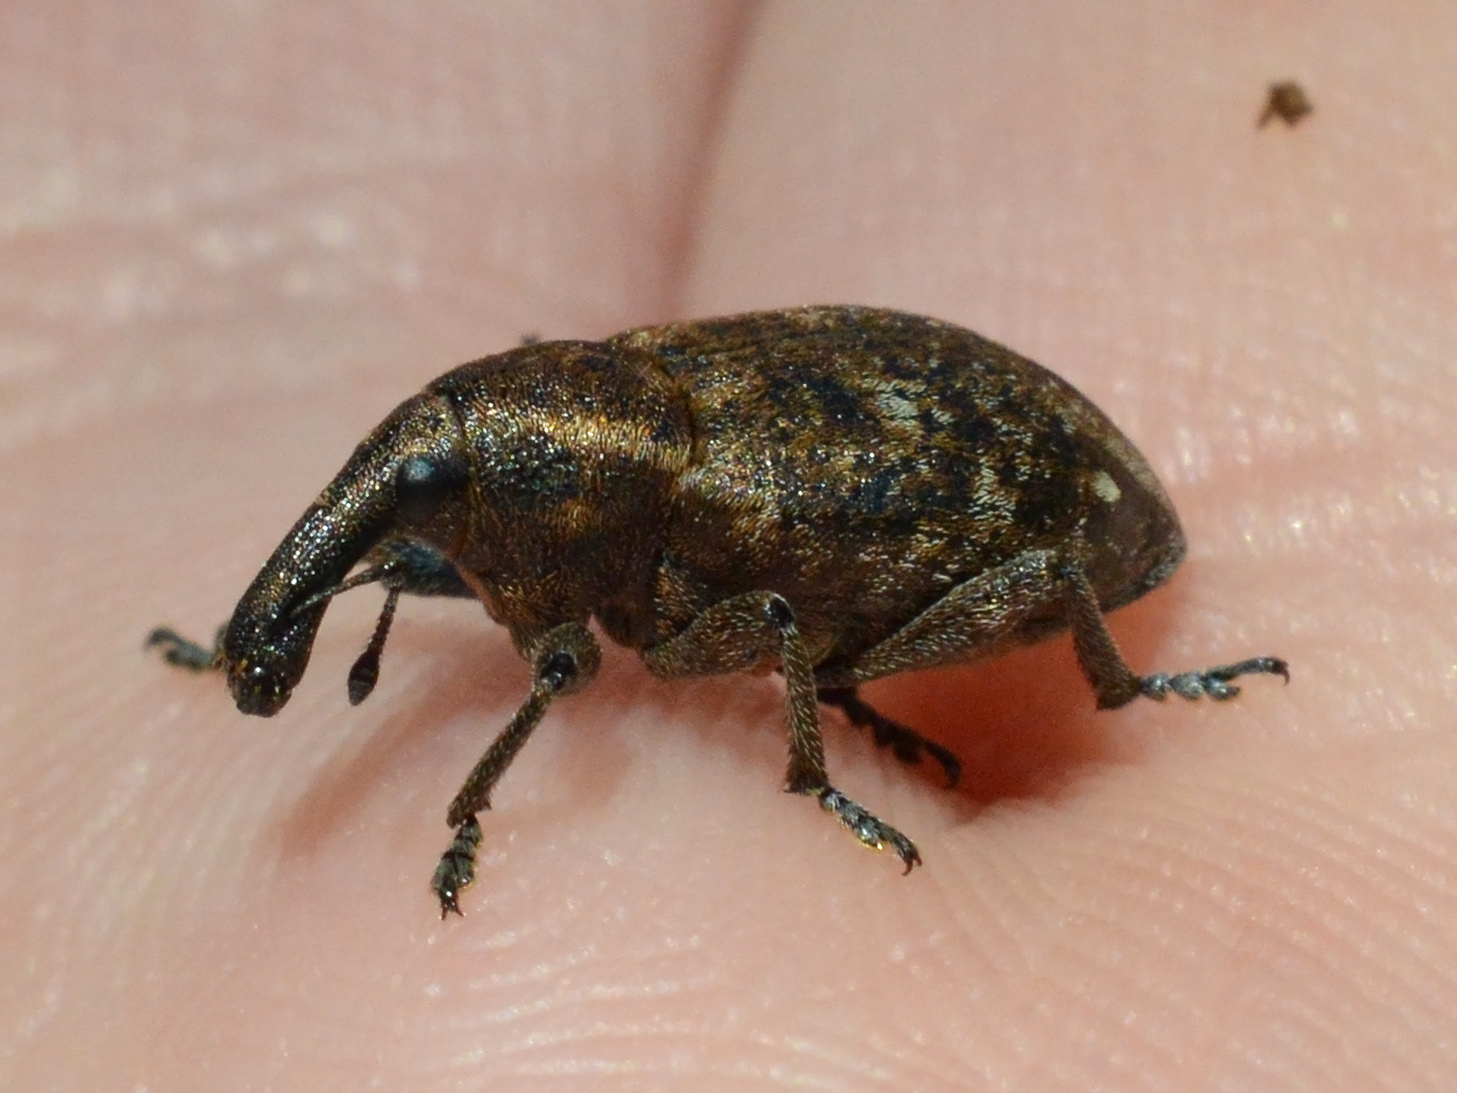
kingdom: Animalia
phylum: Arthropoda
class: Insecta
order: Coleoptera
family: Curculionidae
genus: Lepyrus
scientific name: Lepyrus capucinus
